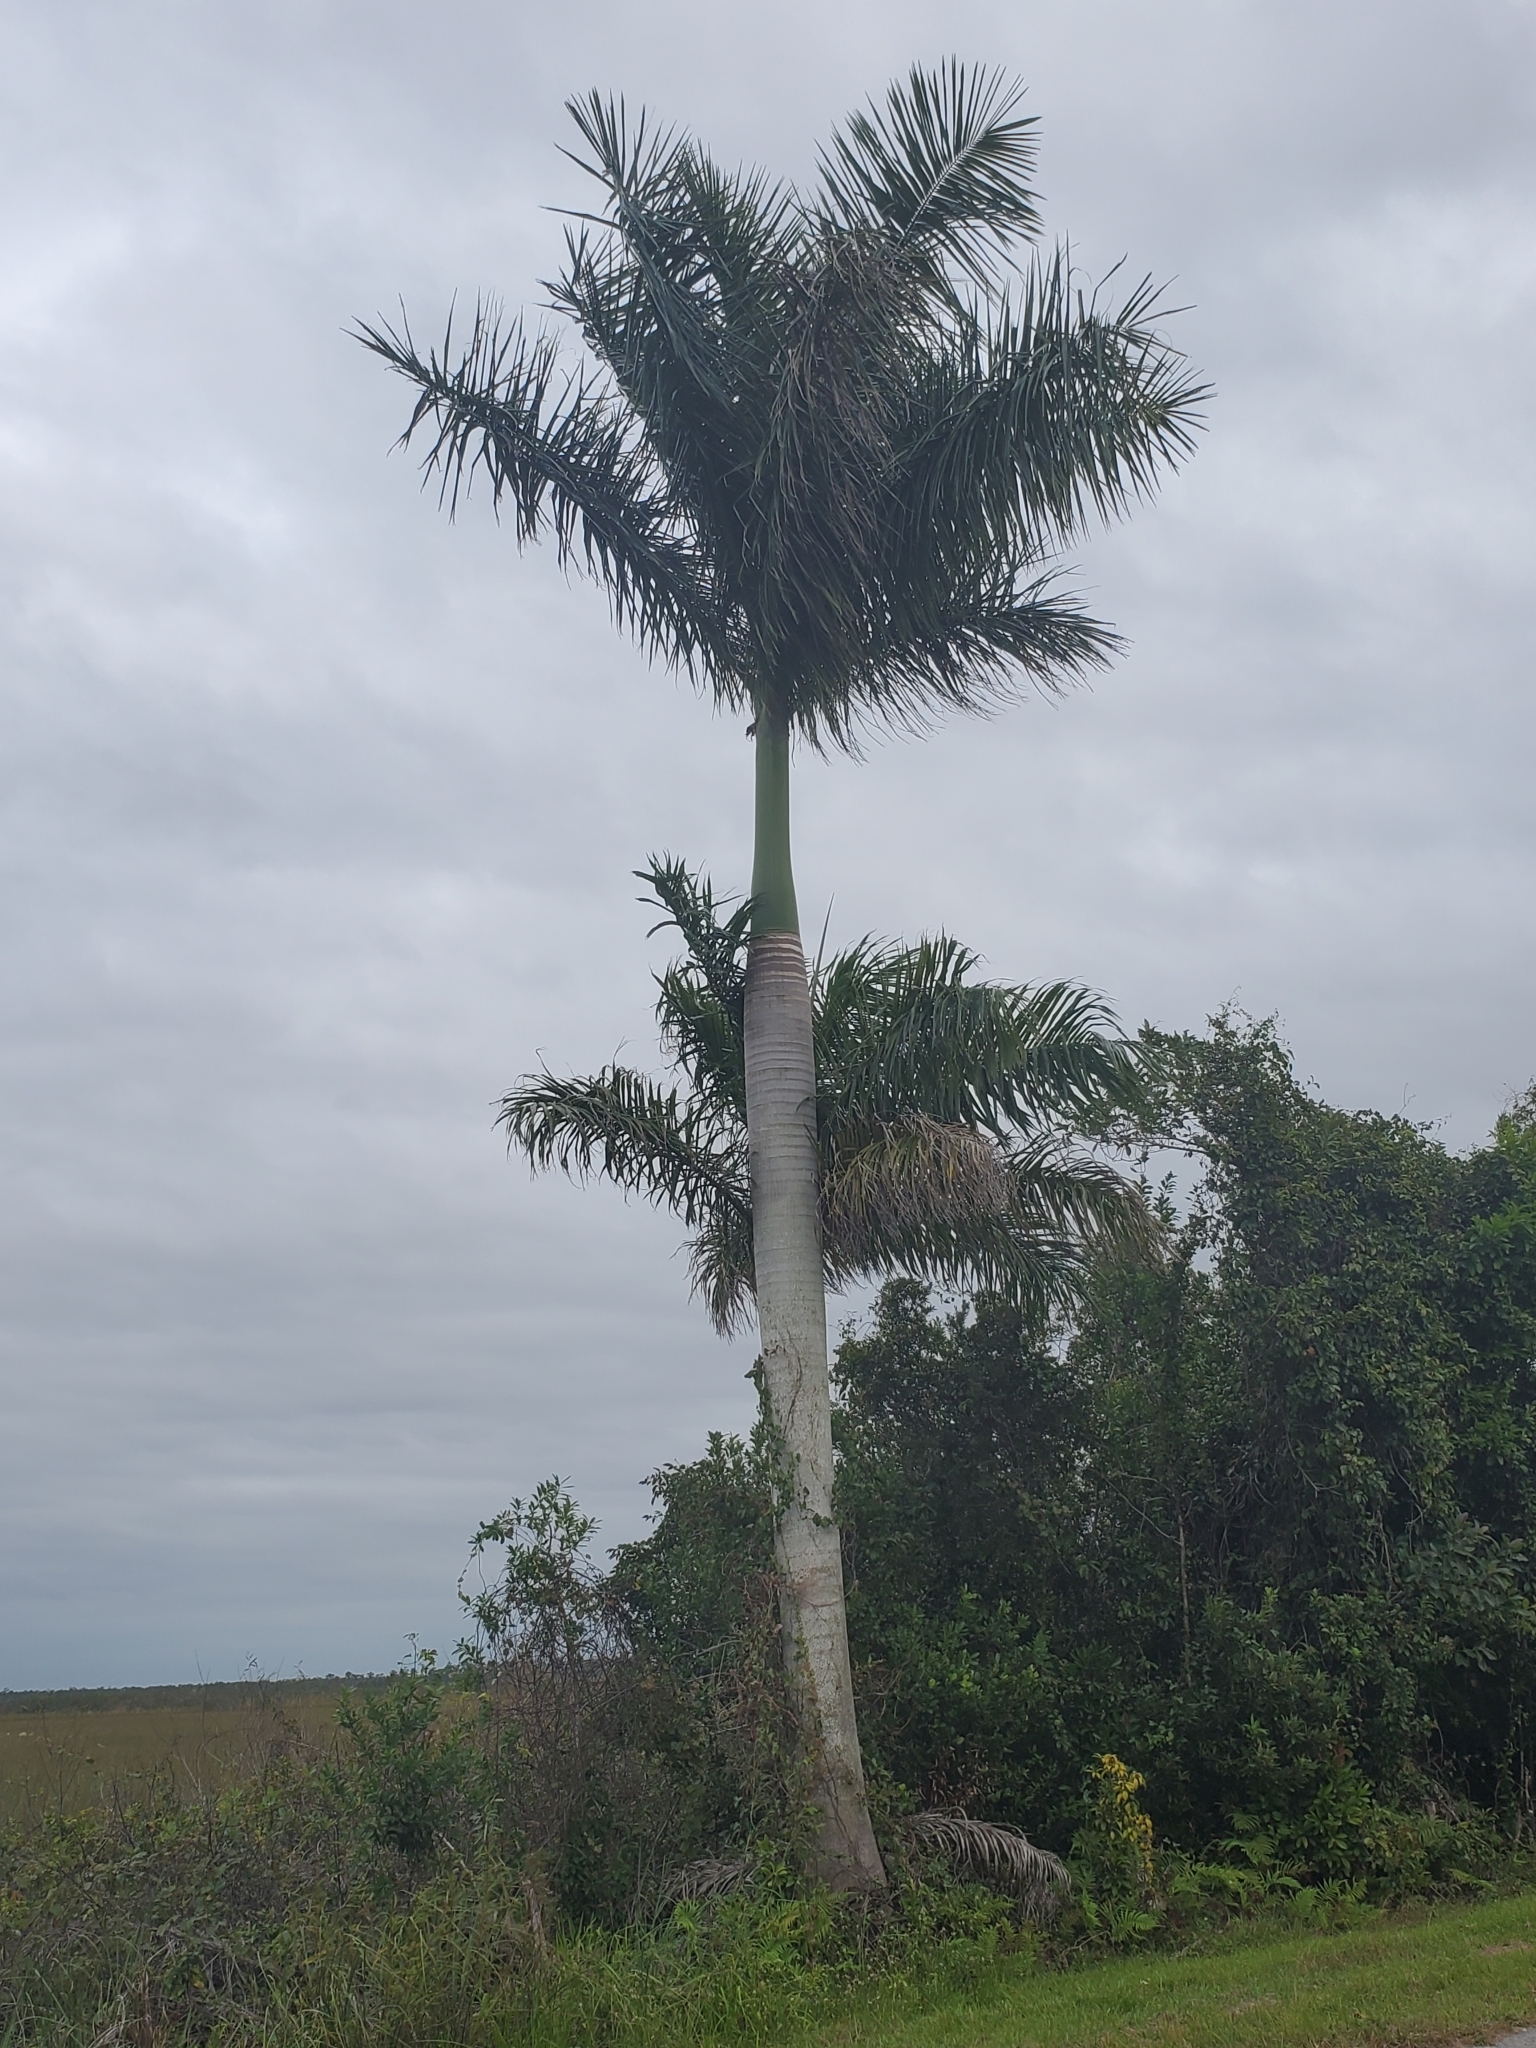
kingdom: Plantae
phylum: Tracheophyta
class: Liliopsida
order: Arecales
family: Arecaceae
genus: Roystonea
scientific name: Roystonea regia
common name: Florida royal palm
